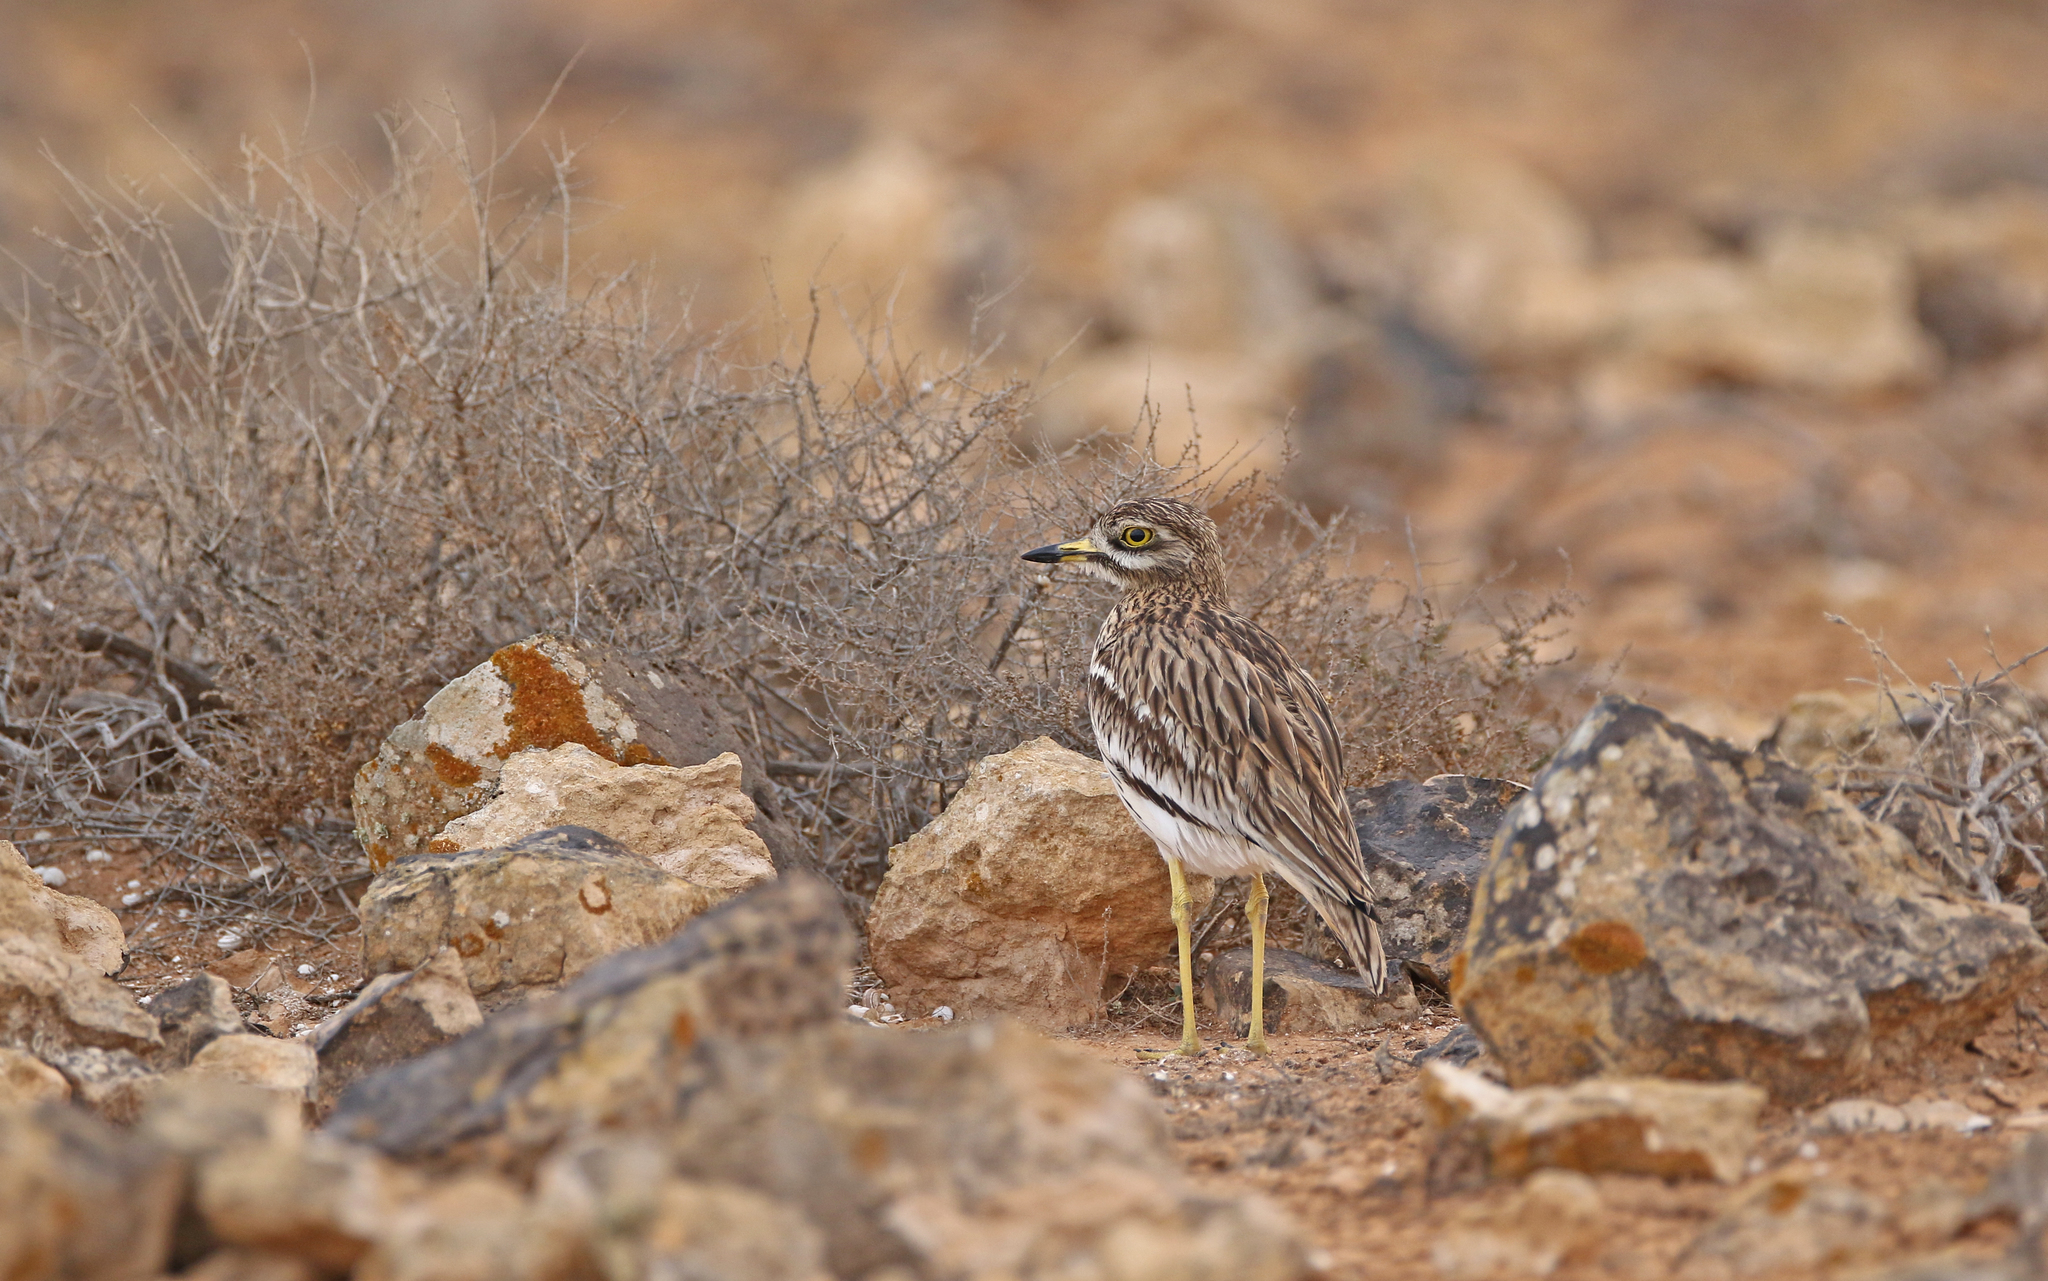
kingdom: Animalia
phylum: Chordata
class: Aves
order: Charadriiformes
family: Burhinidae
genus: Burhinus
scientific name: Burhinus oedicnemus
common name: Eurasian stone-curlew
